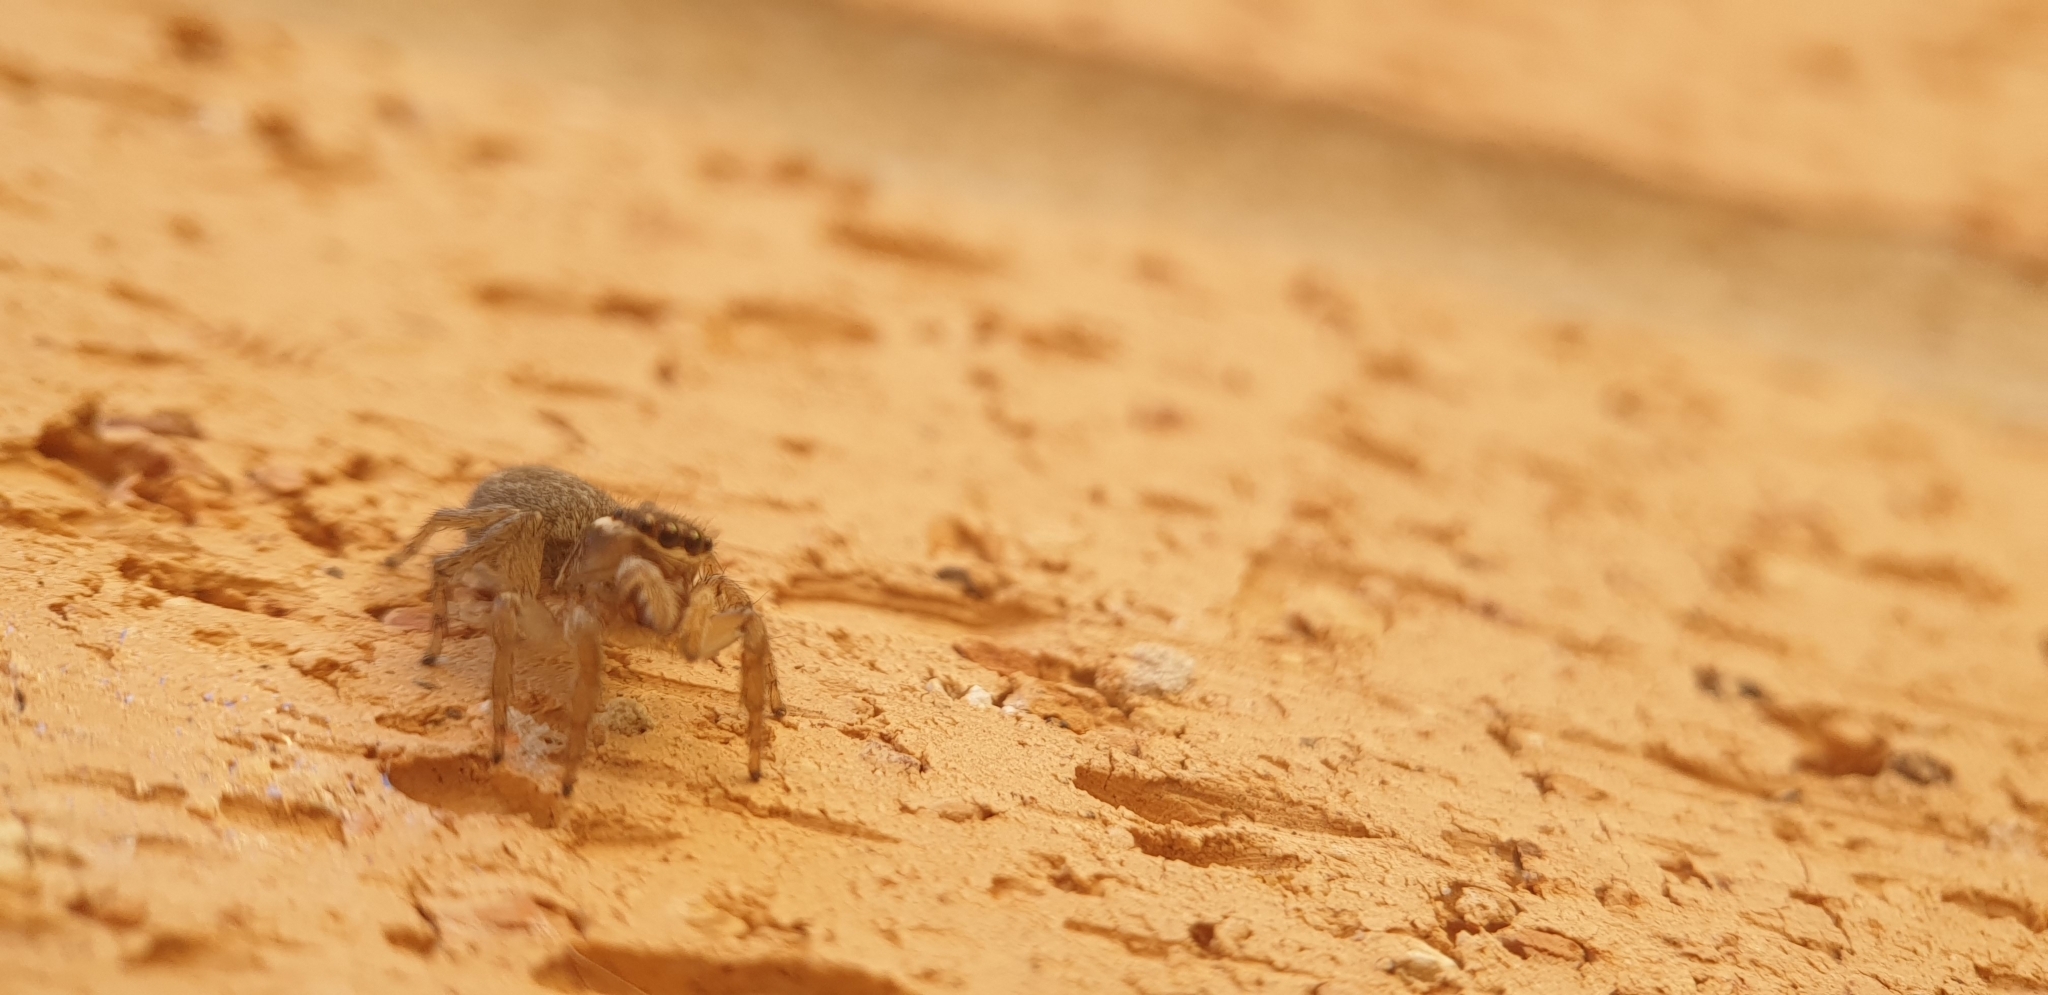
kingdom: Animalia
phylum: Arthropoda
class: Arachnida
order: Araneae
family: Salticidae
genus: Maratus
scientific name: Maratus griseus
